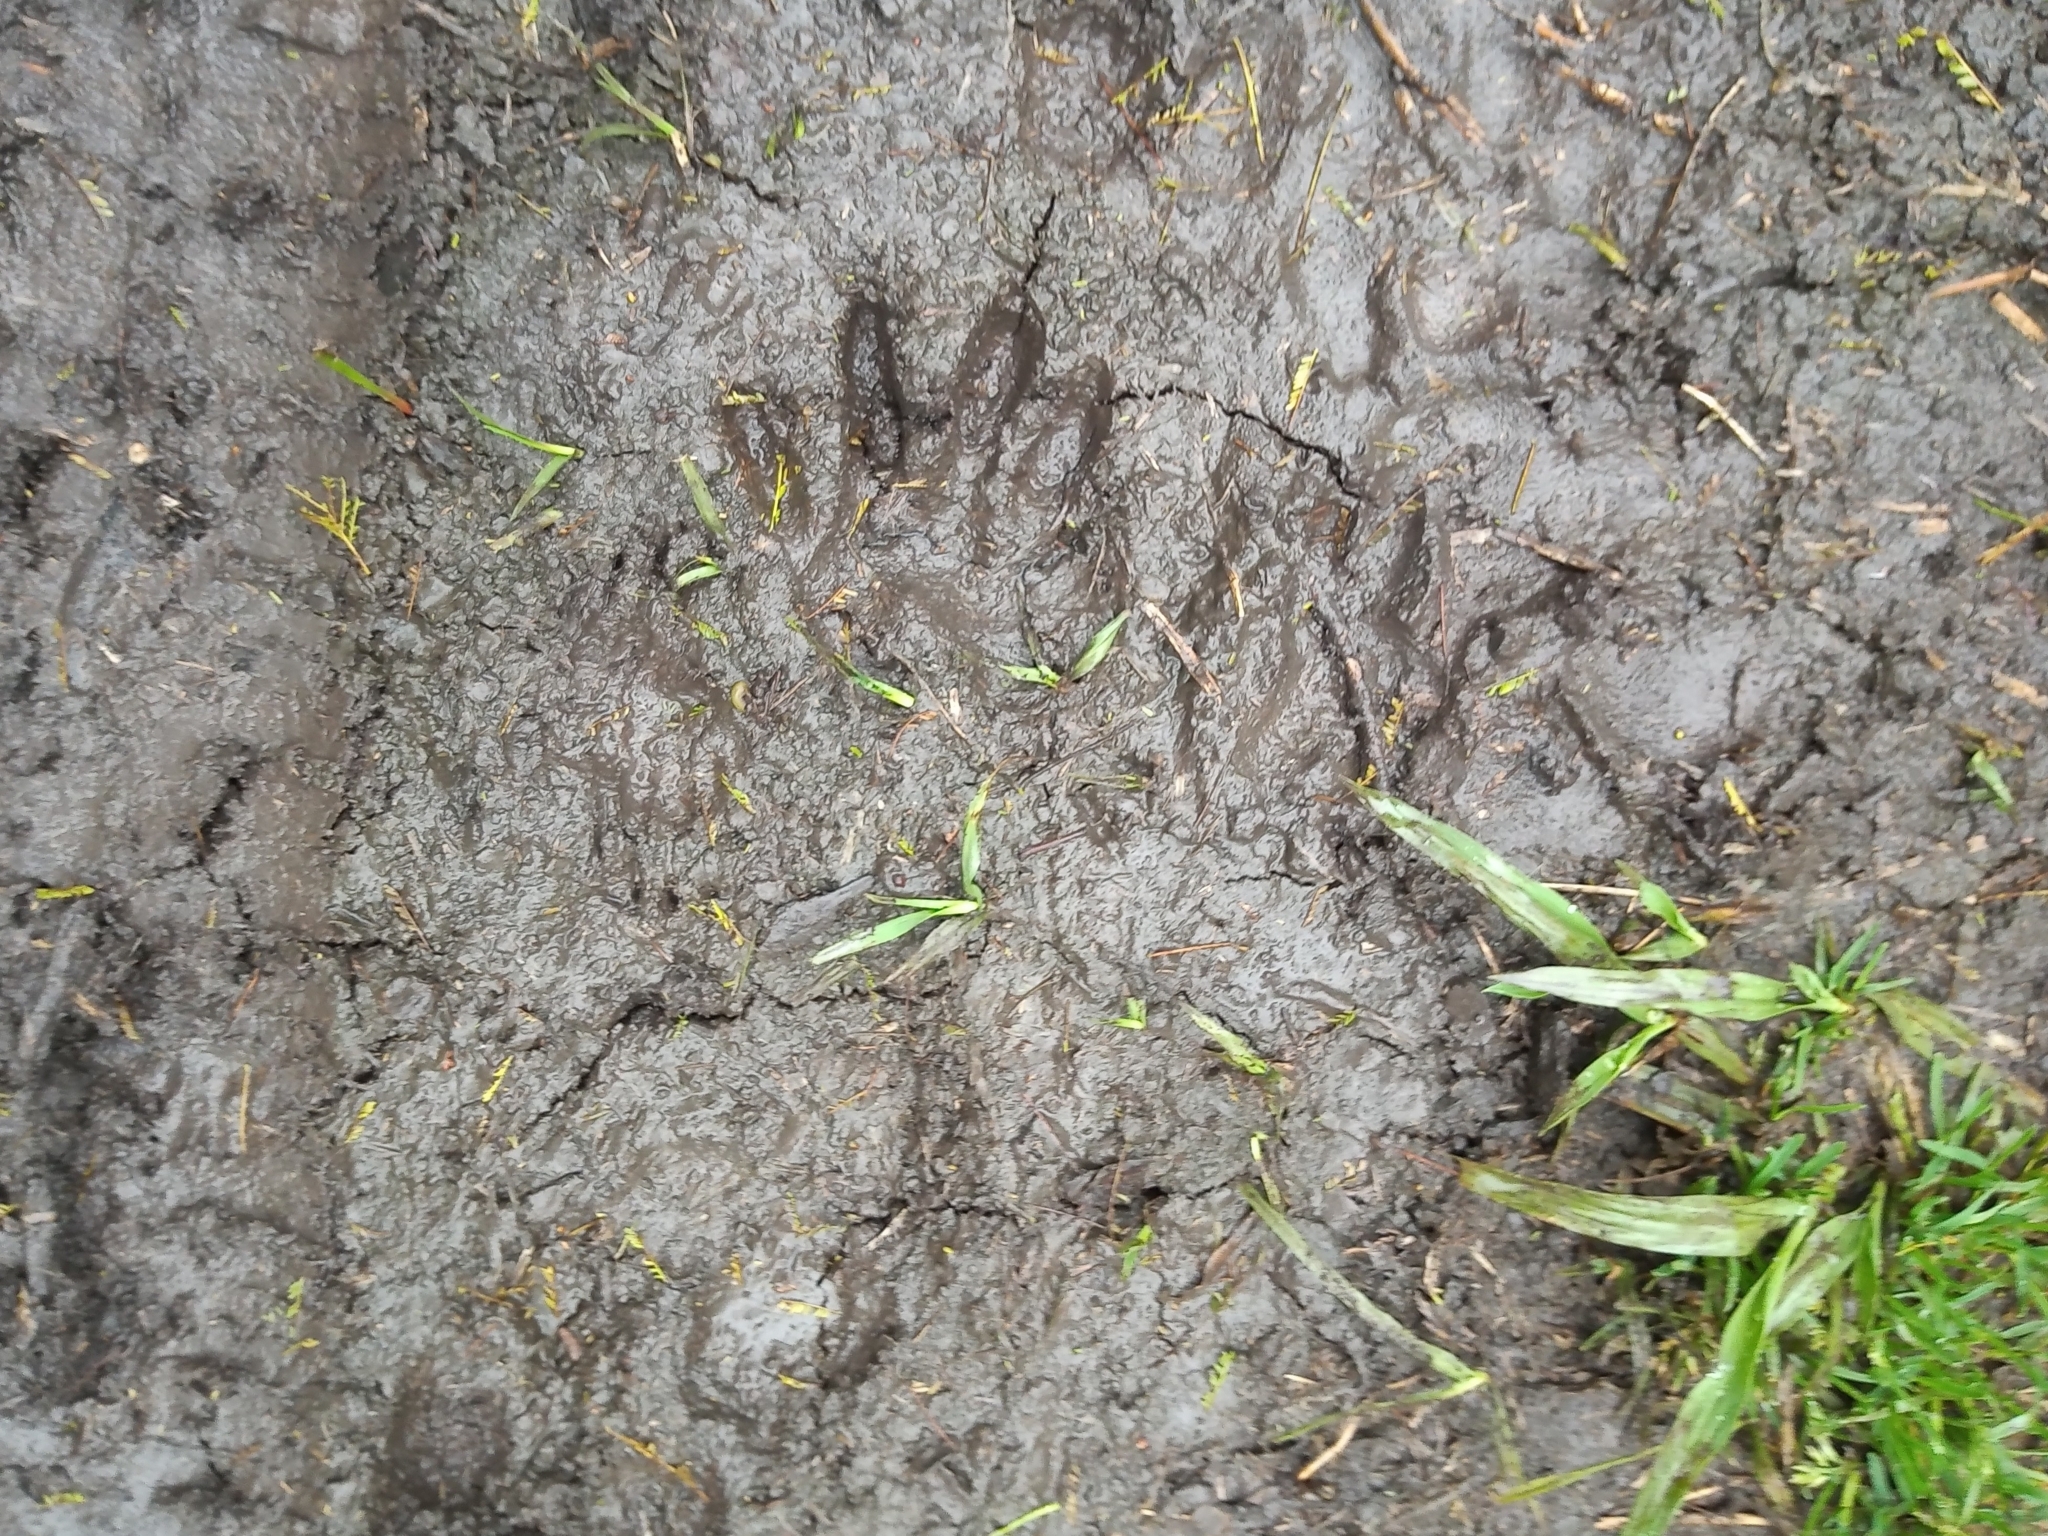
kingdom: Animalia
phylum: Chordata
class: Mammalia
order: Carnivora
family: Procyonidae
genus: Procyon
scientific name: Procyon cancrivorus
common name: Crab-eating raccoon
